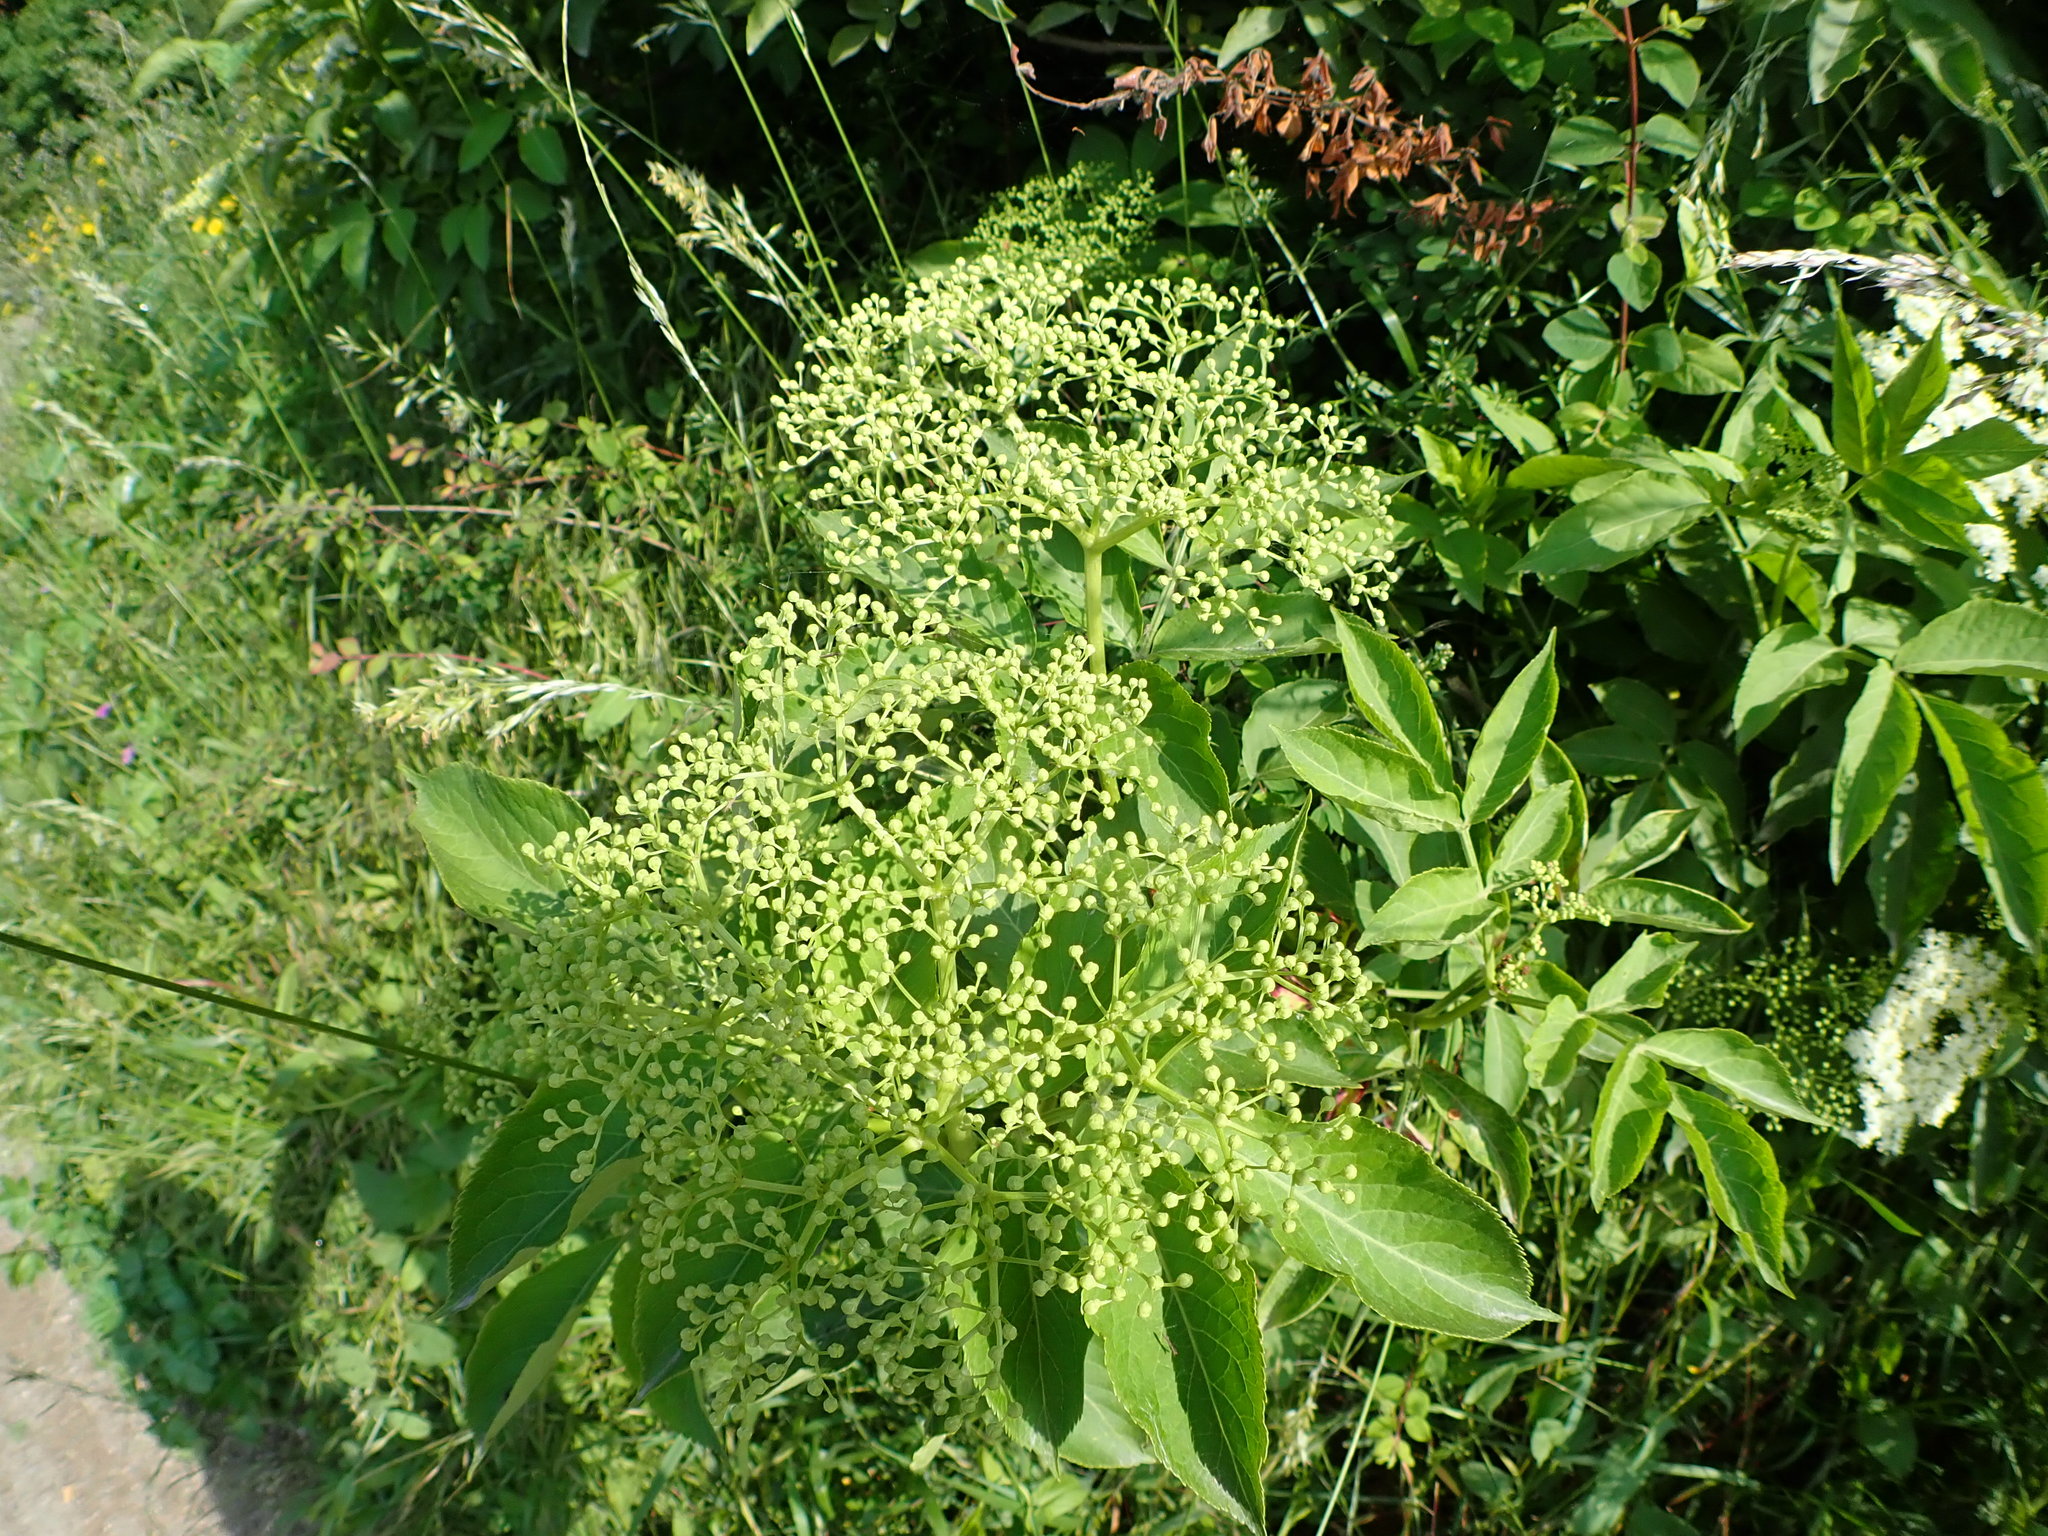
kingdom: Plantae
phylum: Tracheophyta
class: Magnoliopsida
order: Dipsacales
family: Viburnaceae
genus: Sambucus
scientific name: Sambucus nigra
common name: Elder
